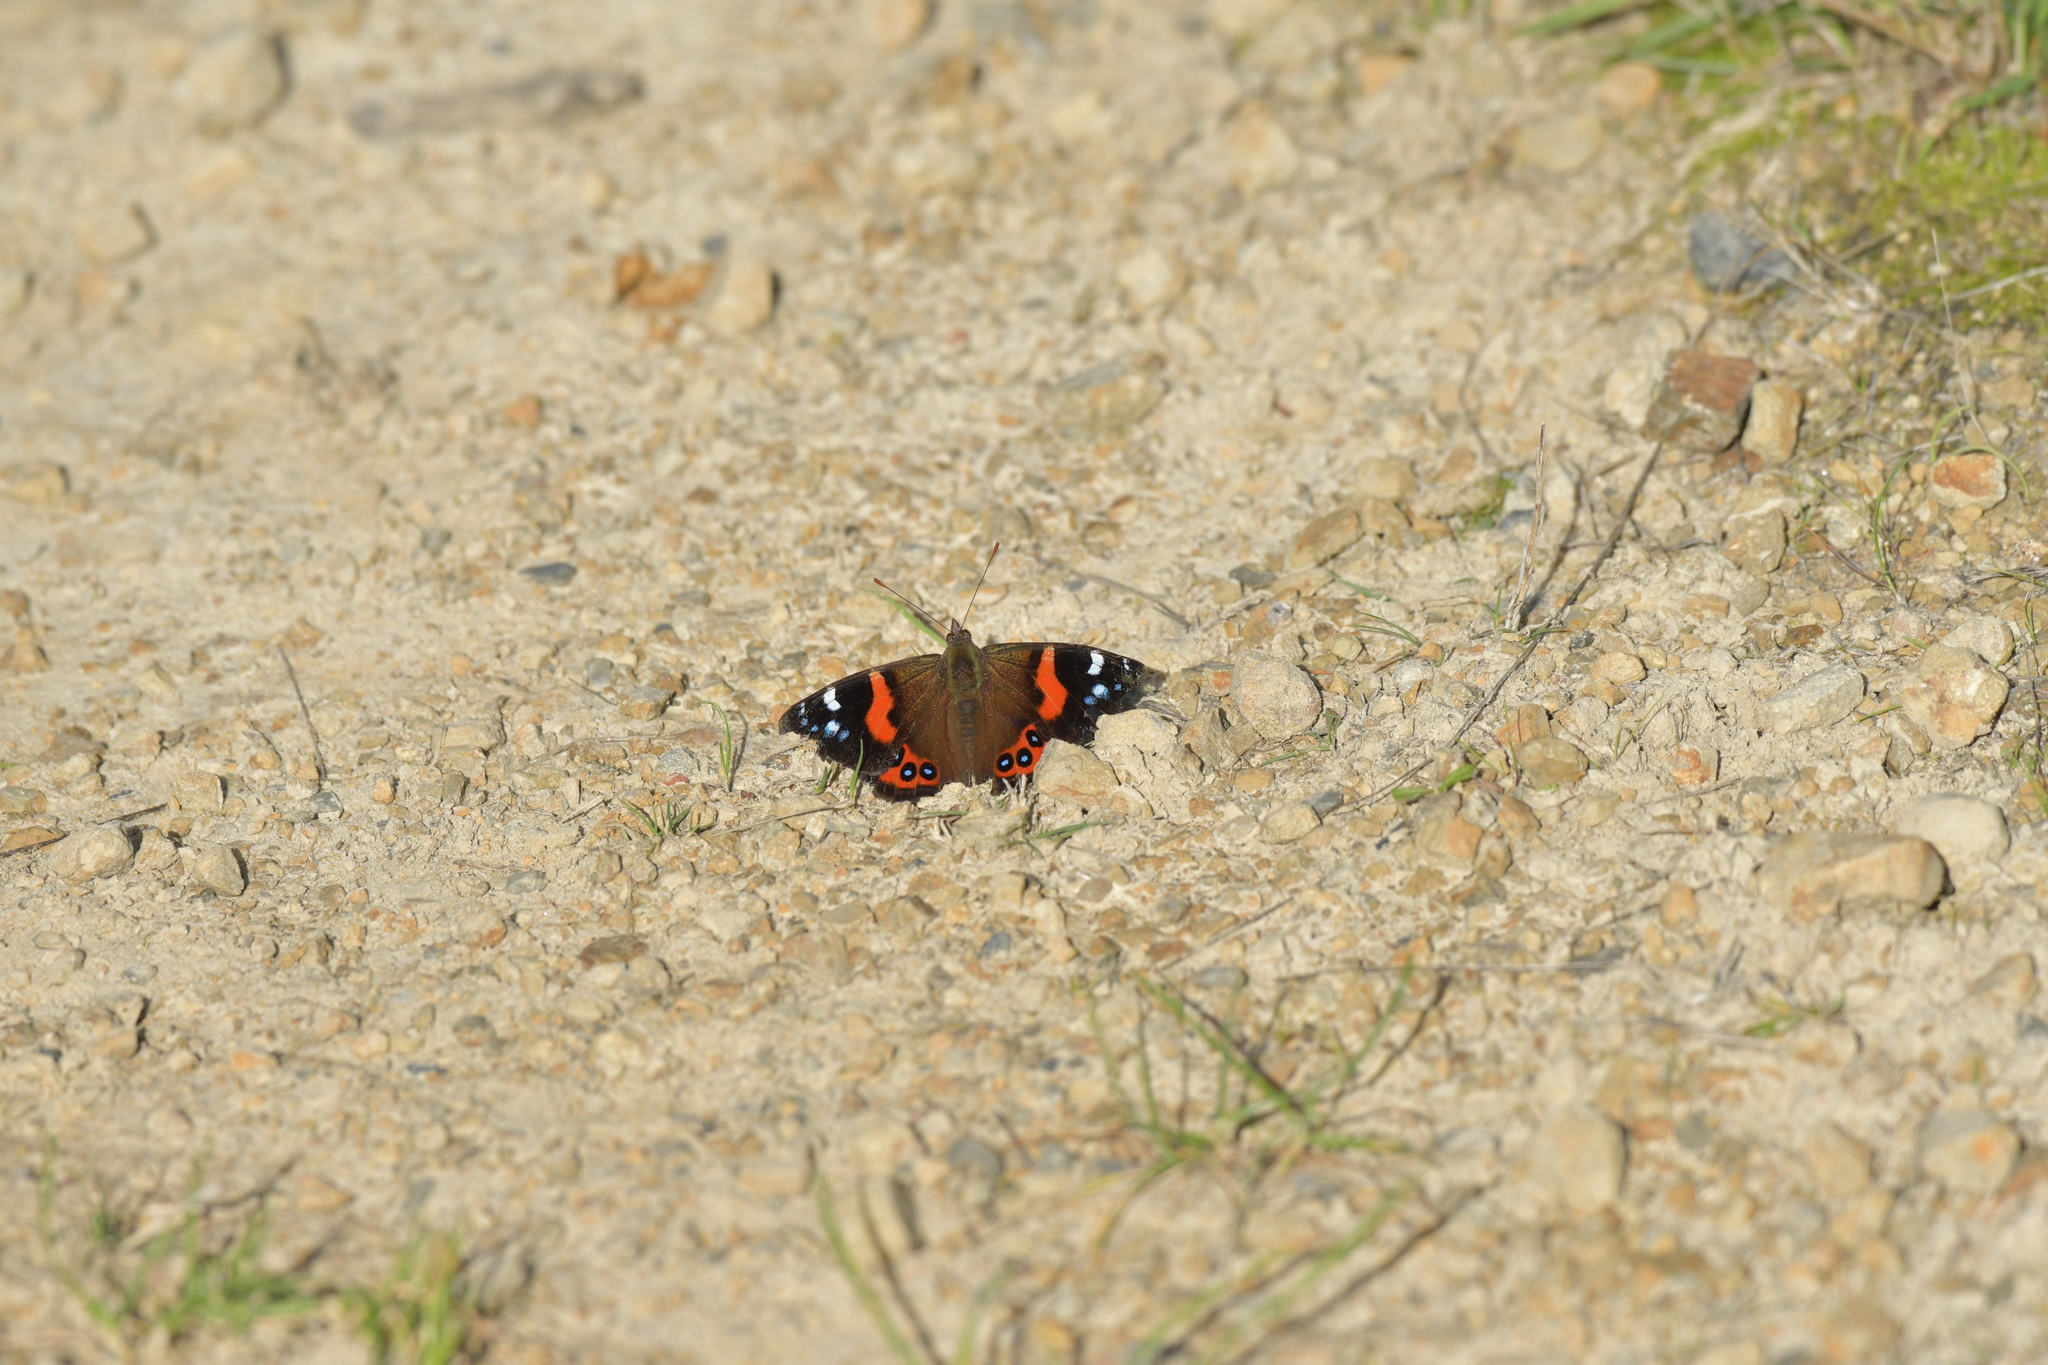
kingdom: Animalia
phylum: Arthropoda
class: Insecta
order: Lepidoptera
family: Nymphalidae
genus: Vanessa
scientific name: Vanessa gonerilla
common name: New zealand red admiral
